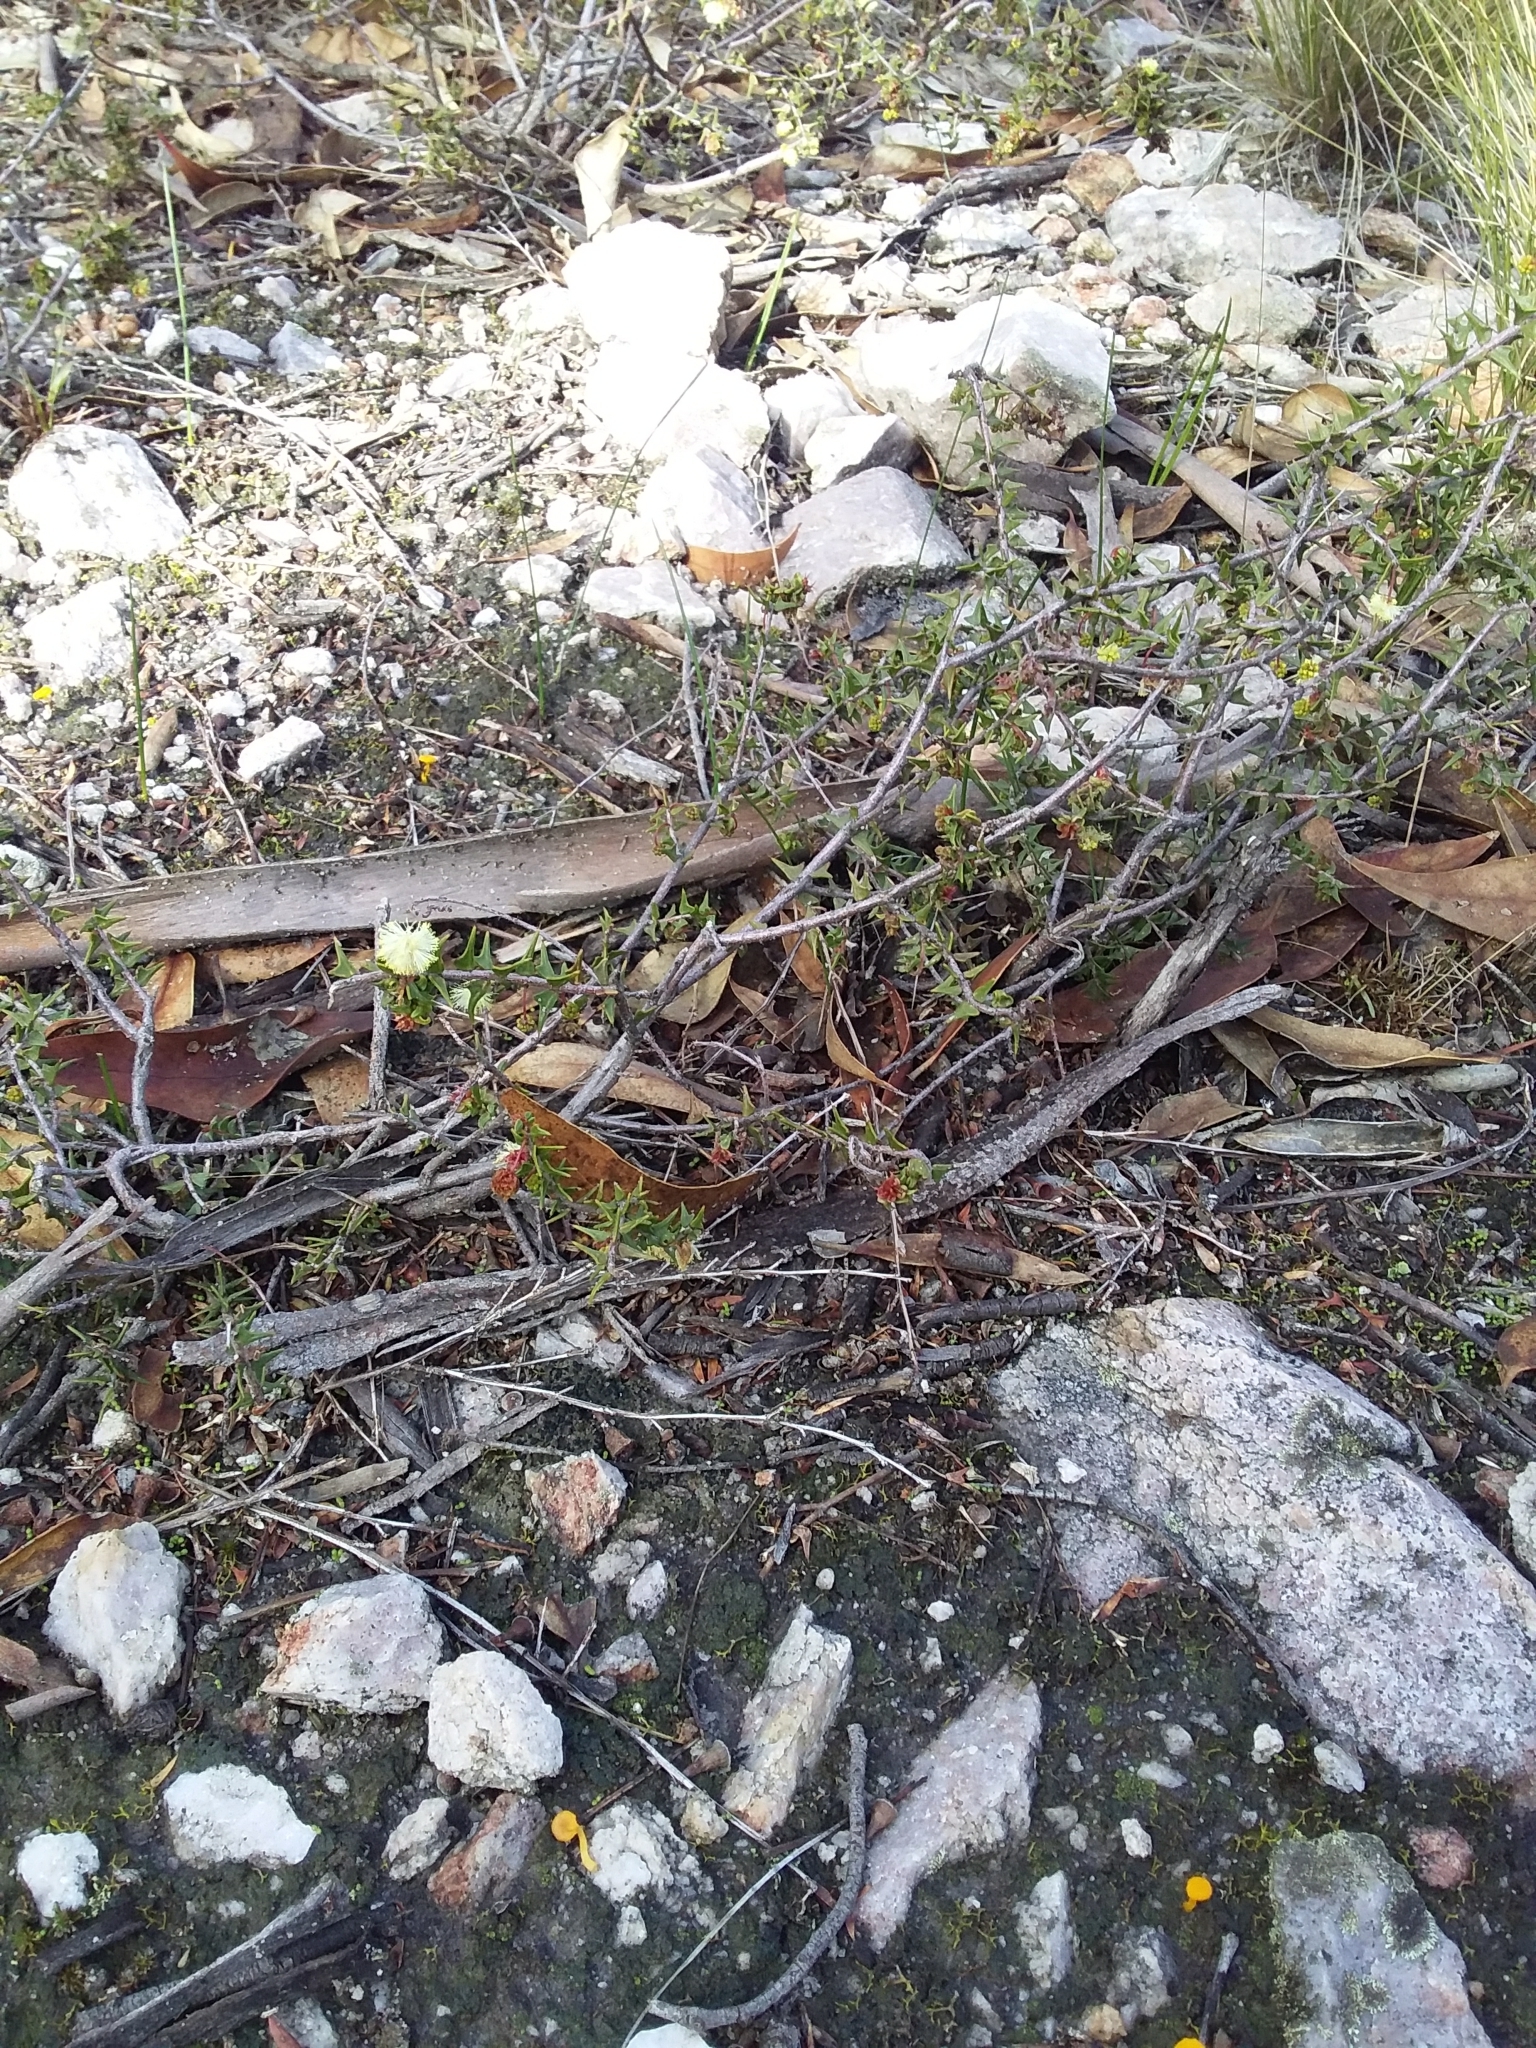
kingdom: Plantae
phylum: Tracheophyta
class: Magnoliopsida
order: Fabales
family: Fabaceae
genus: Acacia
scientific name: Acacia gunnii
